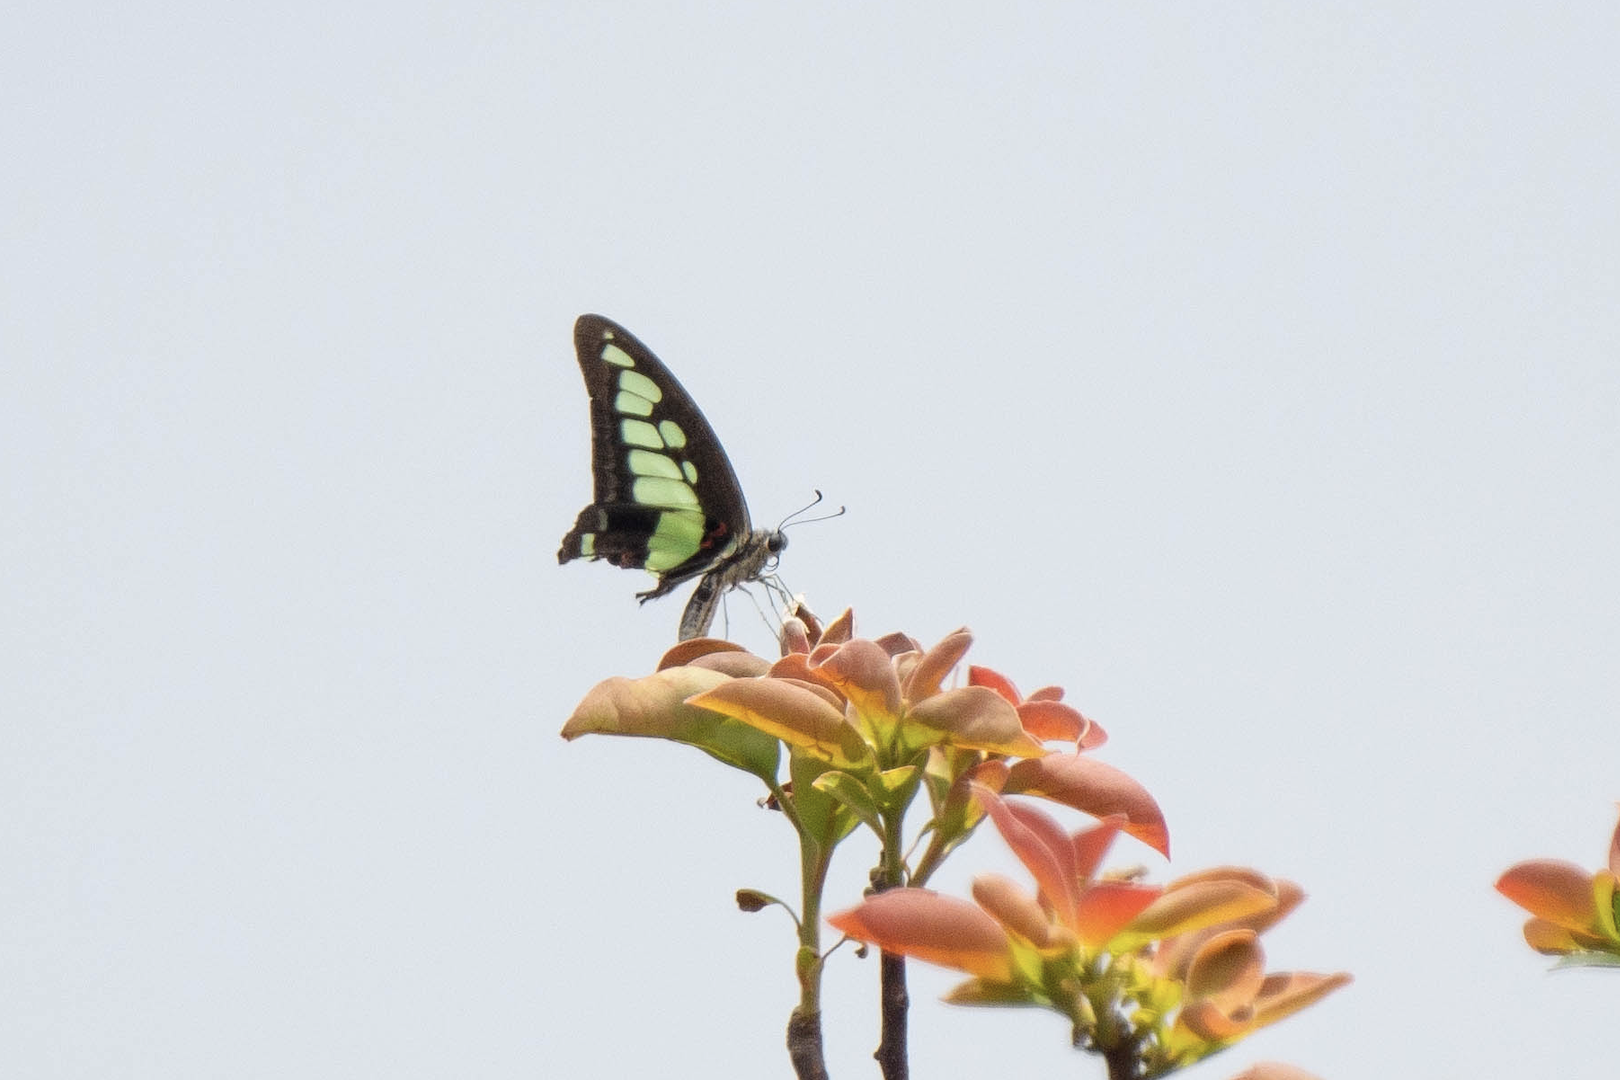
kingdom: Animalia
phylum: Arthropoda
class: Insecta
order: Lepidoptera
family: Papilionidae
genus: Graphium
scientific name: Graphium cloanthus
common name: Glassy bluebottle
